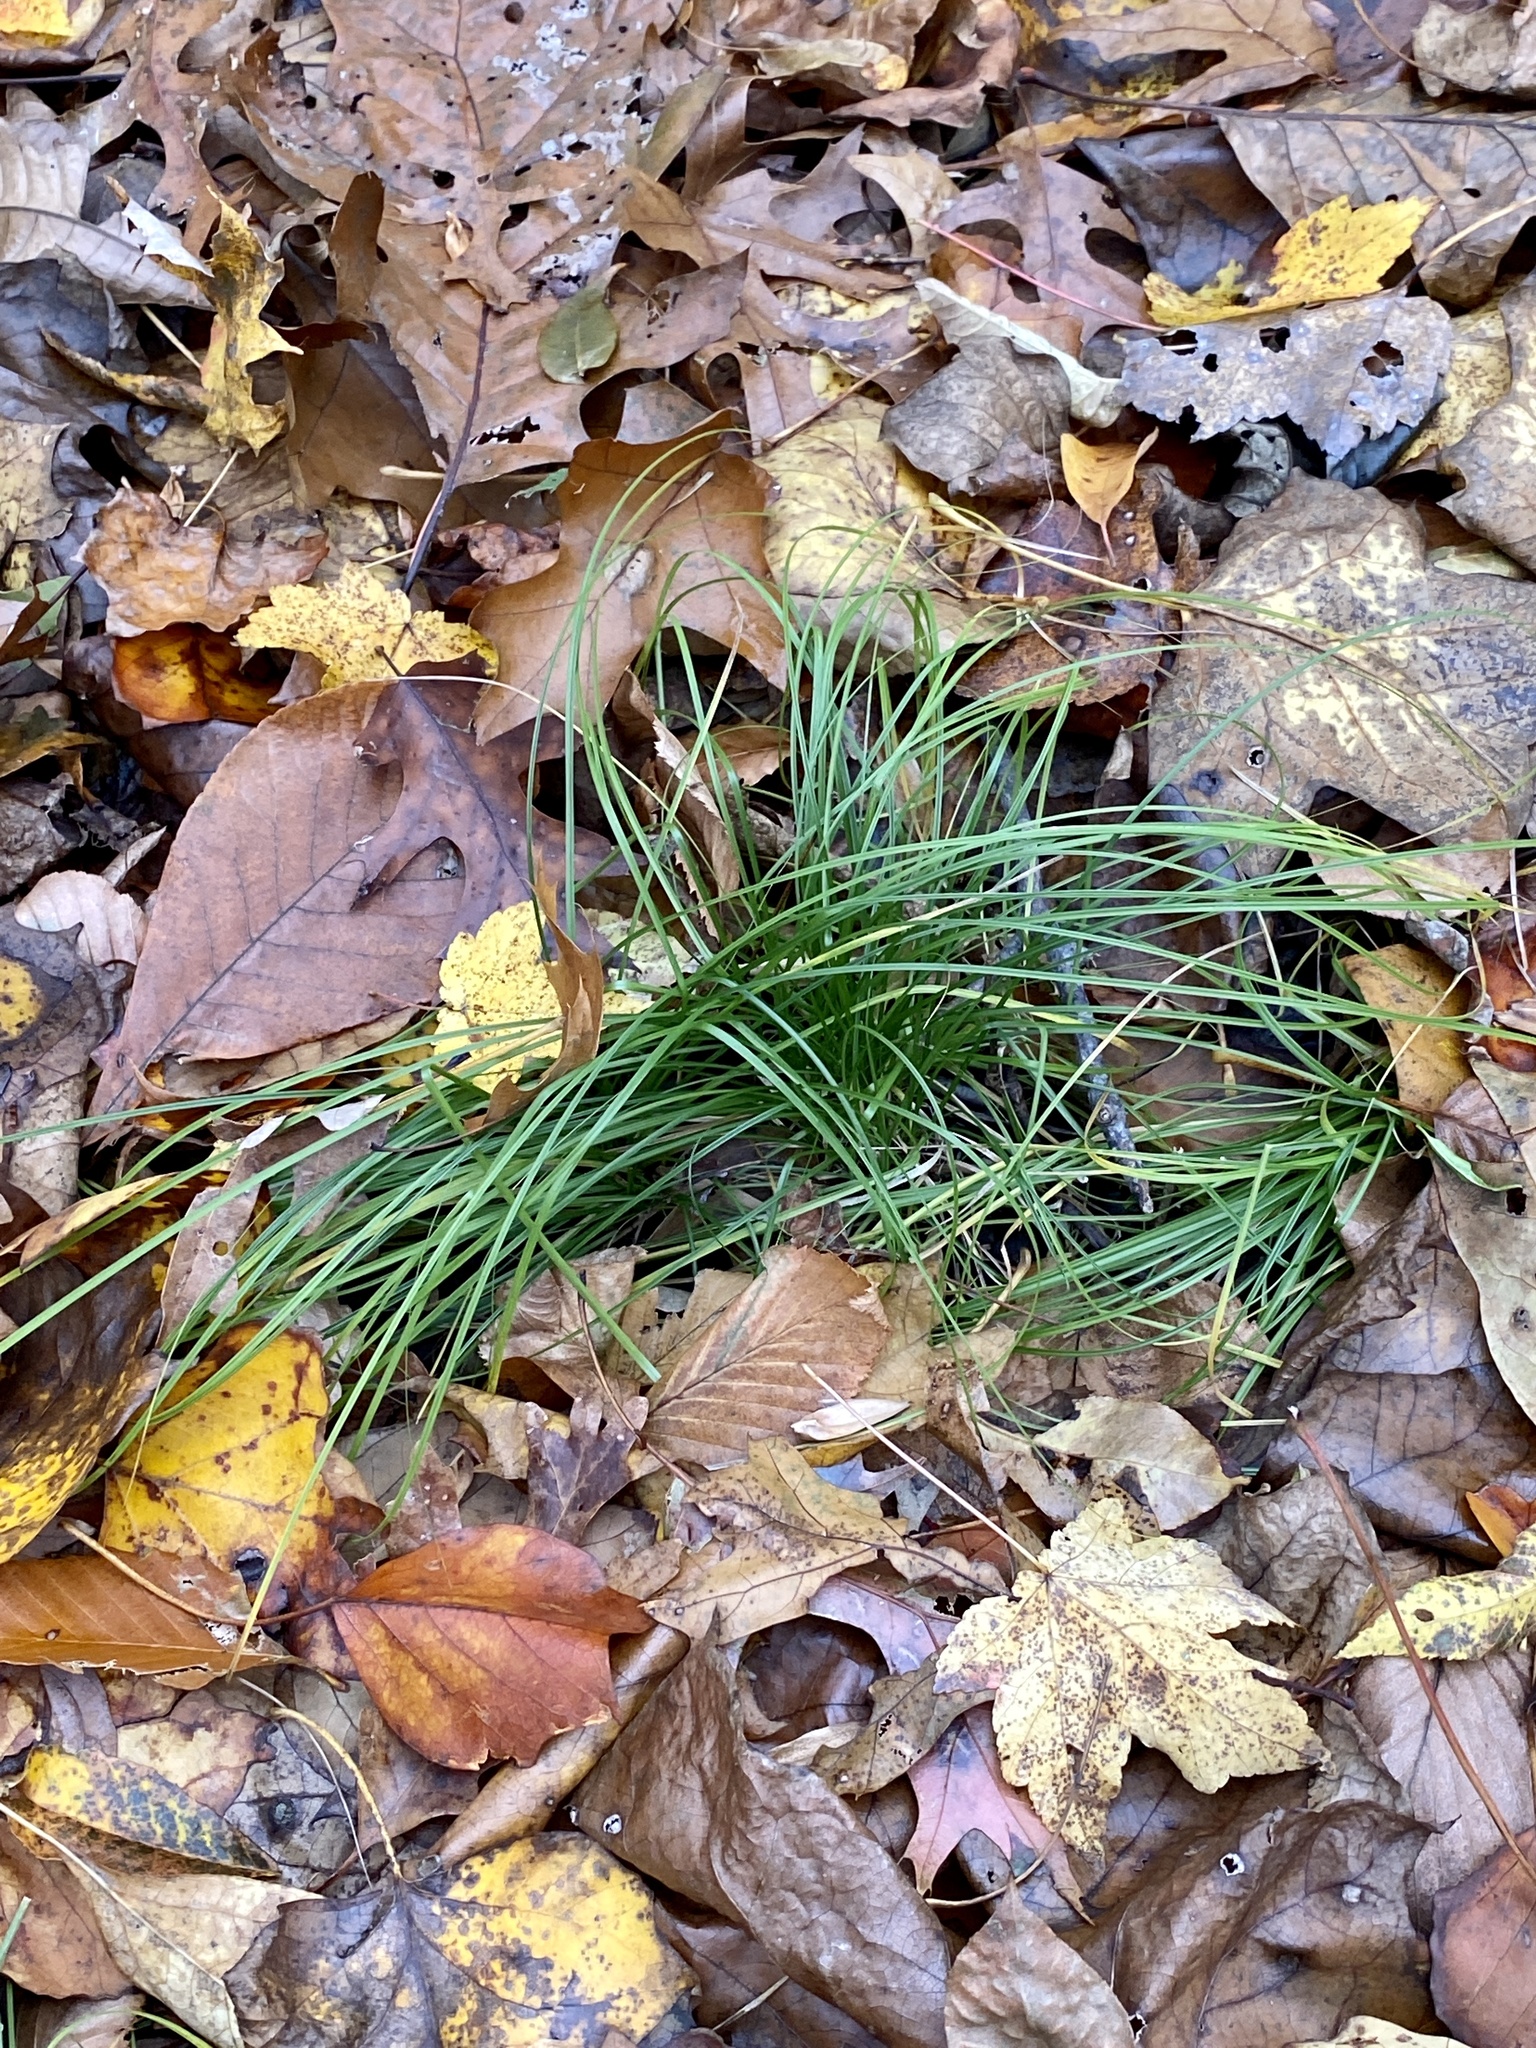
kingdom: Plantae
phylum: Tracheophyta
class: Liliopsida
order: Asparagales
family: Amaryllidaceae
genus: Allium
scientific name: Allium vineale
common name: Crow garlic
